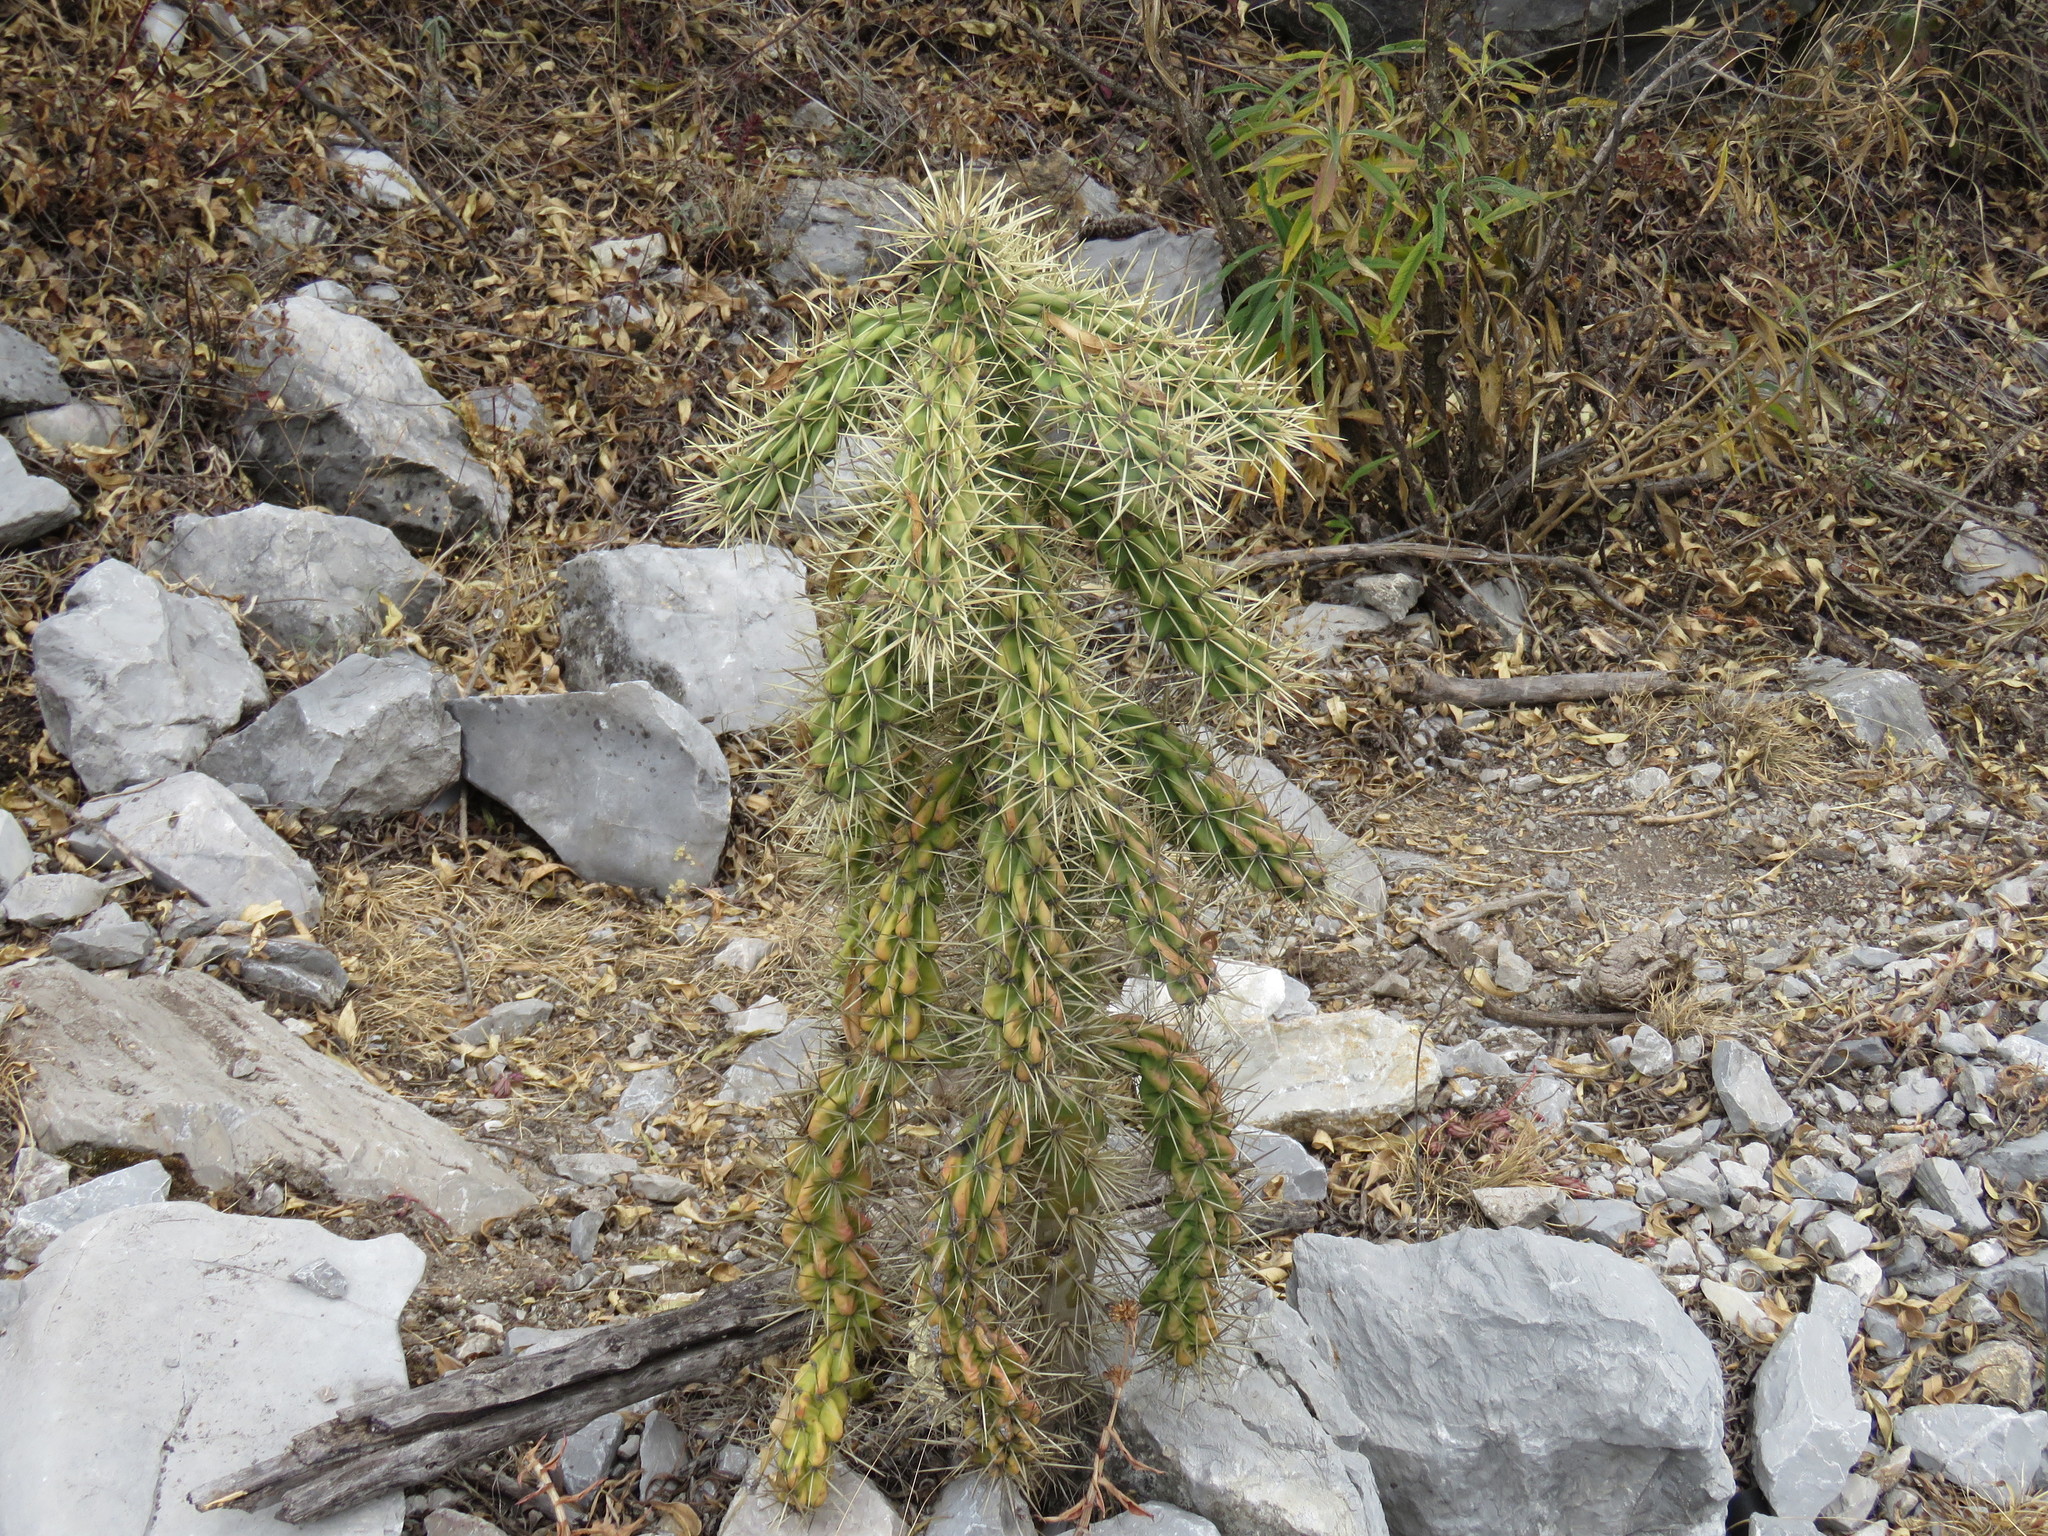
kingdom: Plantae
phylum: Tracheophyta
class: Magnoliopsida
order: Caryophyllales
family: Cactaceae
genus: Cylindropuntia
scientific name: Cylindropuntia imbricata
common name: Candelabrum cactus
